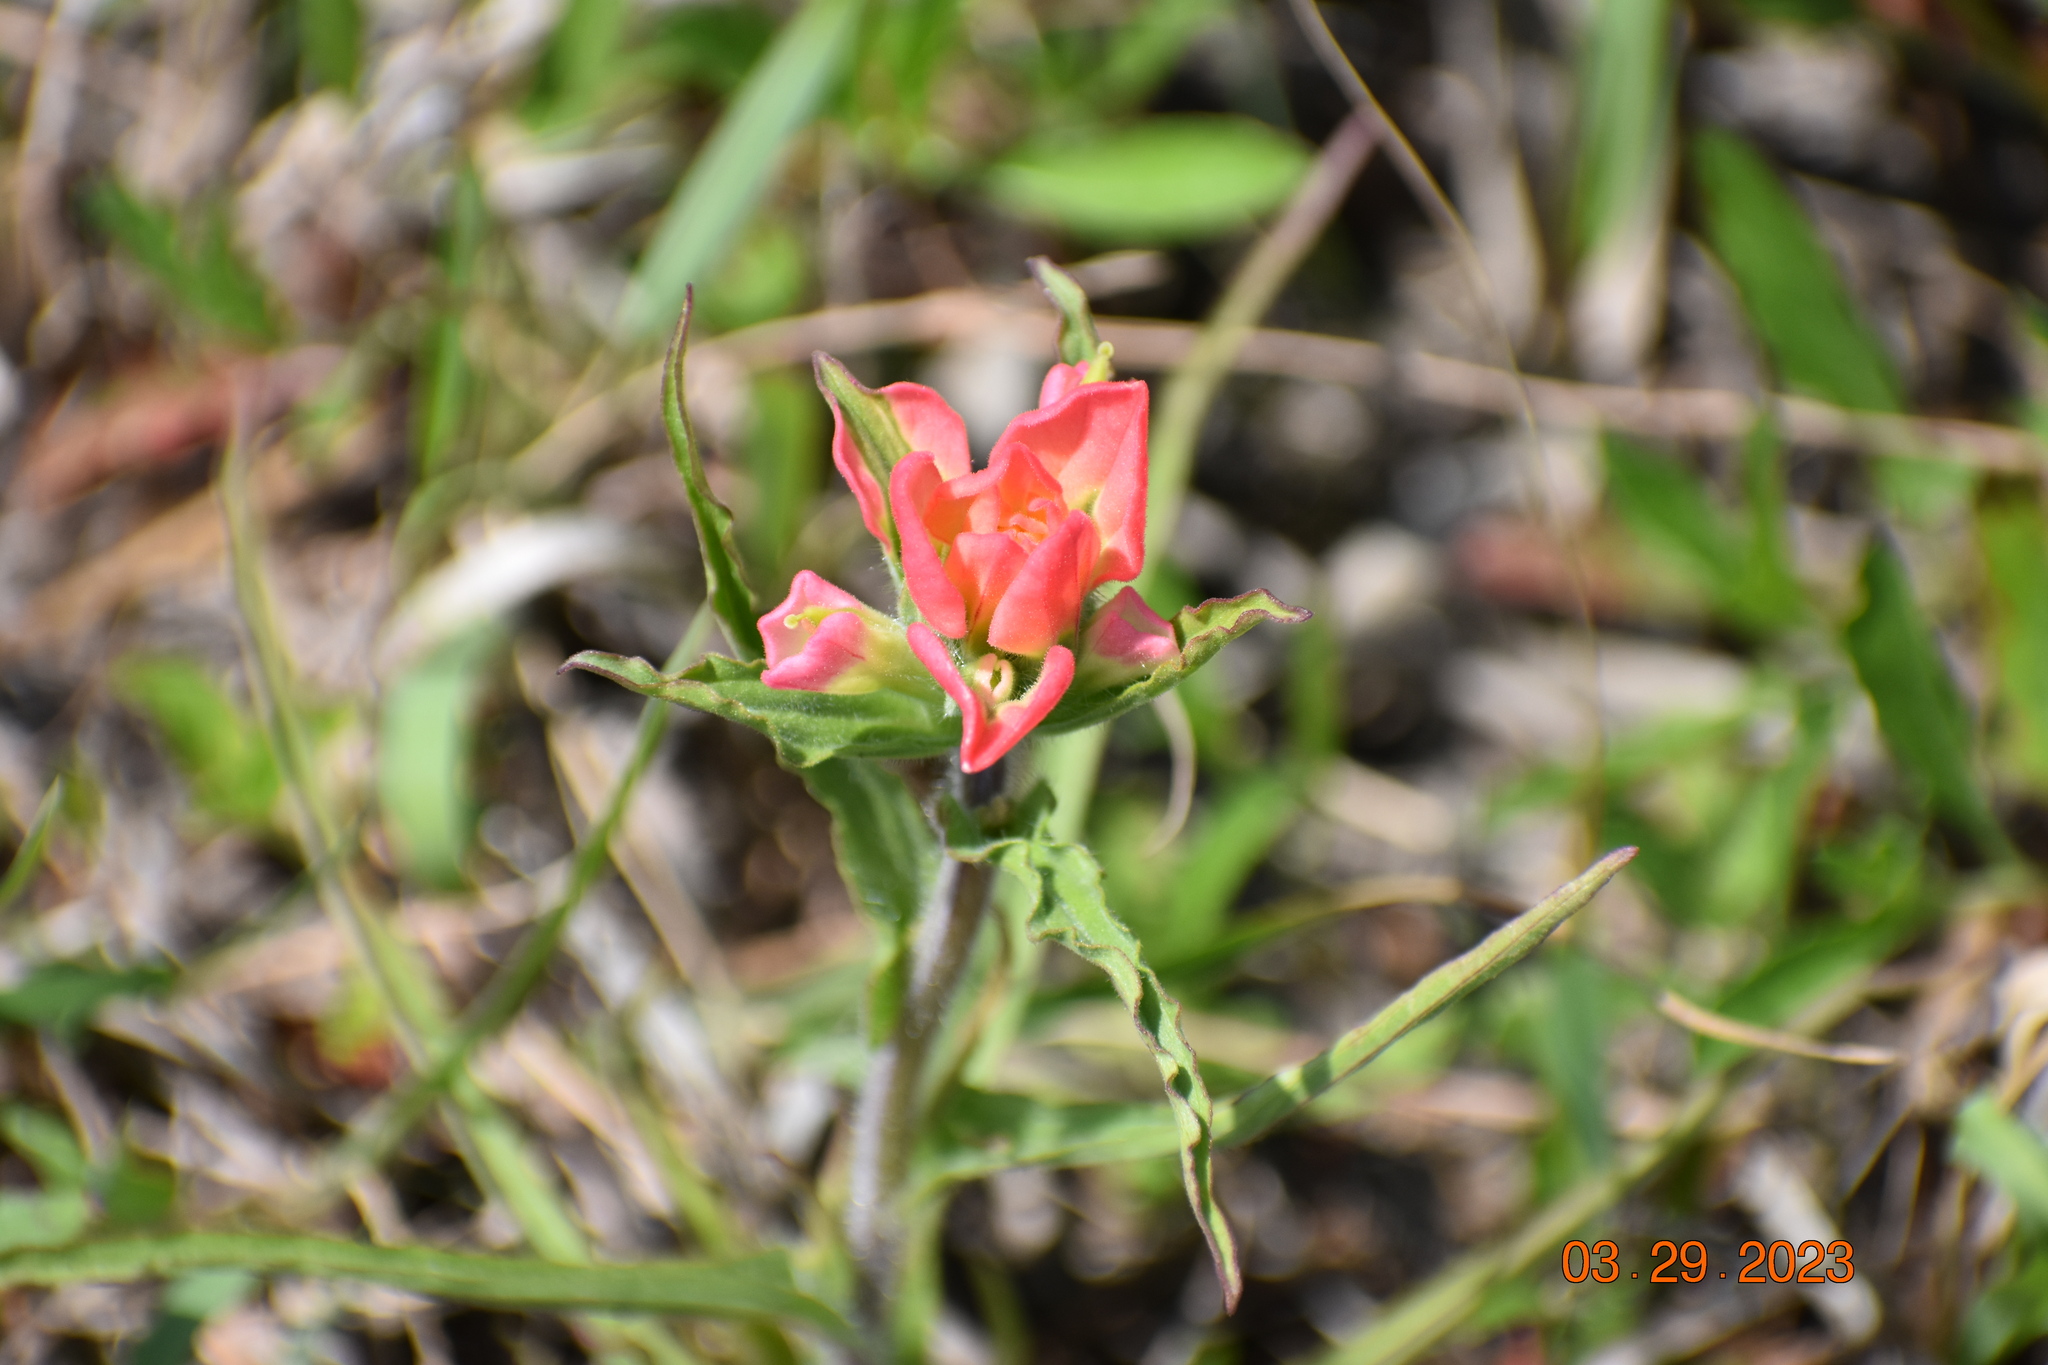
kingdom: Plantae
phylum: Tracheophyta
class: Magnoliopsida
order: Lamiales
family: Orobanchaceae
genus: Castilleja
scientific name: Castilleja indivisa
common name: Texas paintbrush
